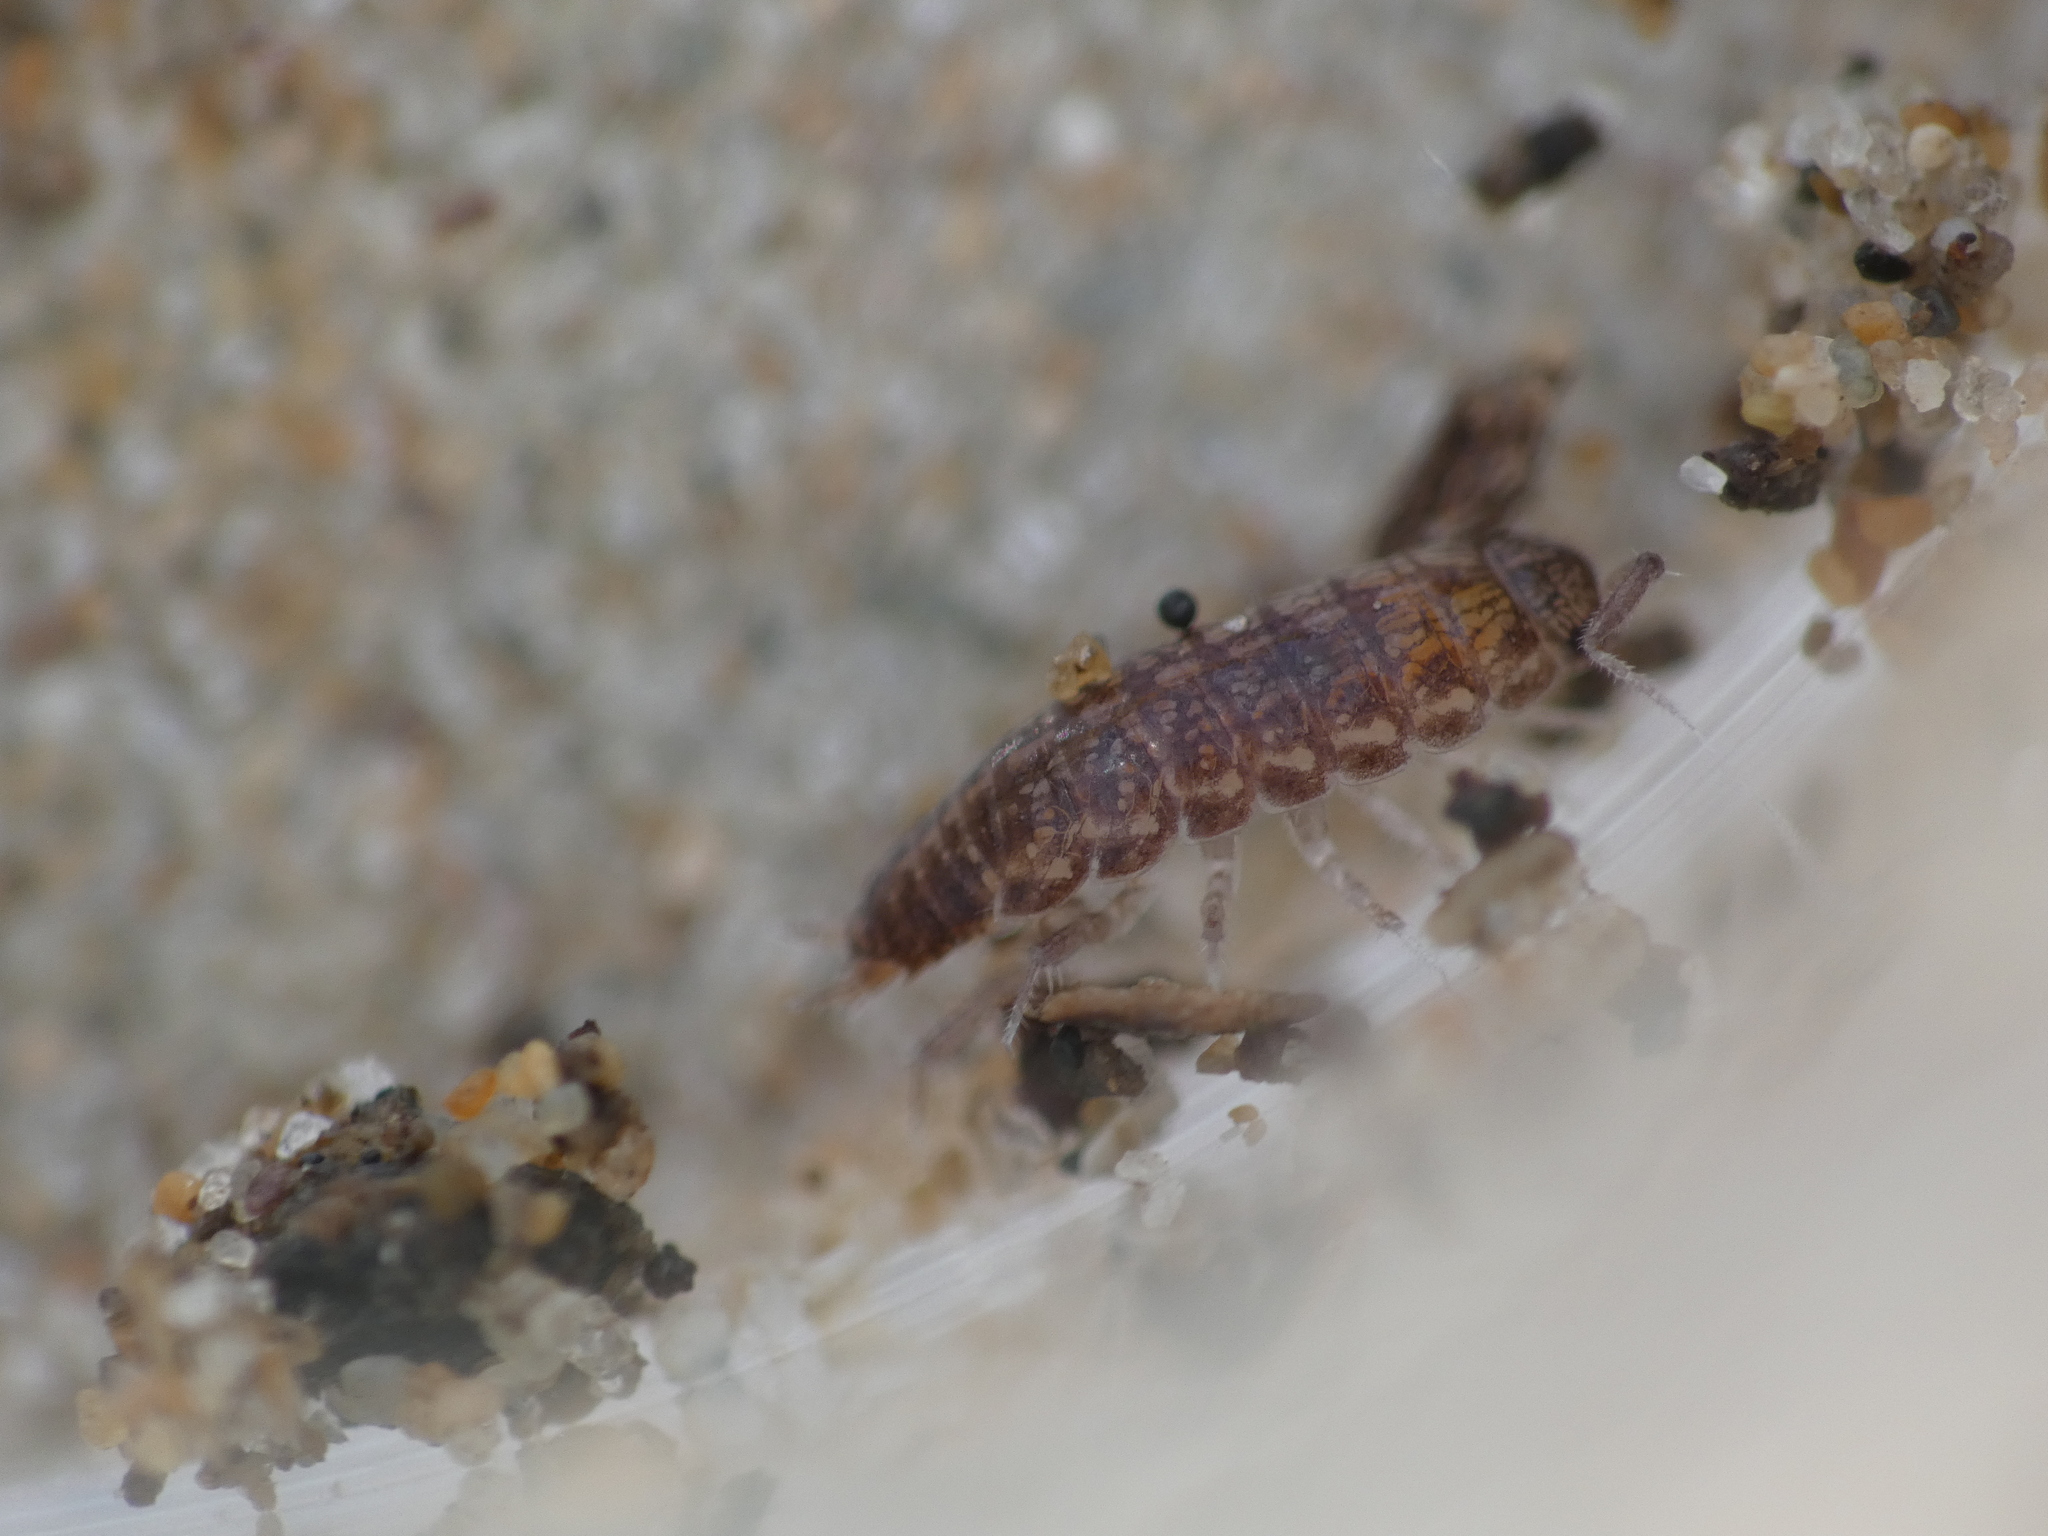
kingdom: Animalia
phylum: Arthropoda
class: Malacostraca
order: Isopoda
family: Philosciidae
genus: Chaetophiloscia
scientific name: Chaetophiloscia sicula
